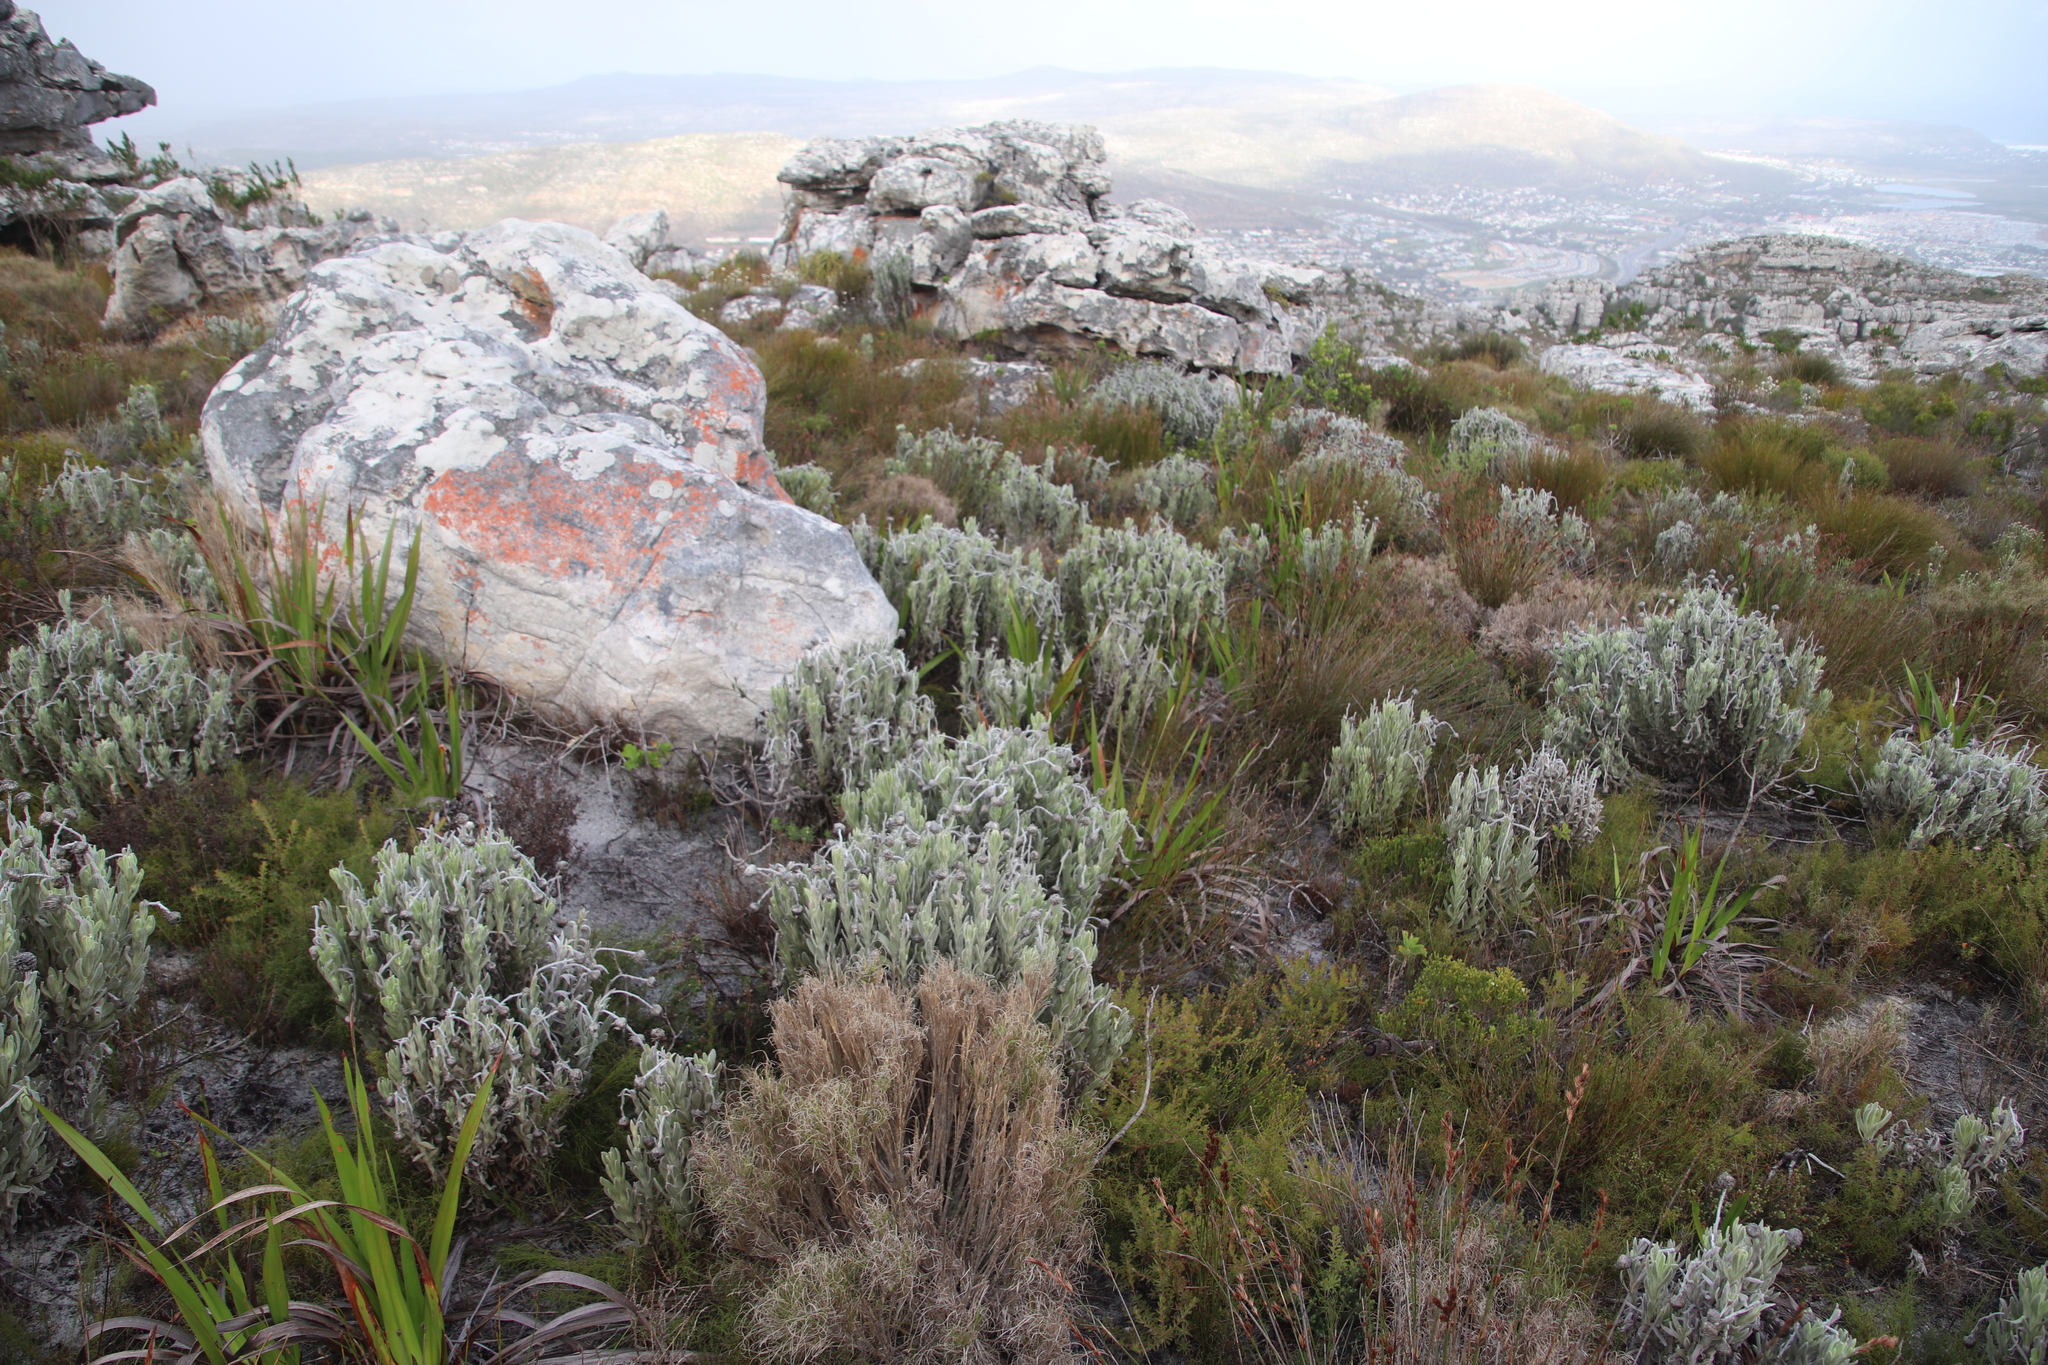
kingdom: Plantae
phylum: Tracheophyta
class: Magnoliopsida
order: Asterales
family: Asteraceae
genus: Syncarpha
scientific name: Syncarpha vestita
